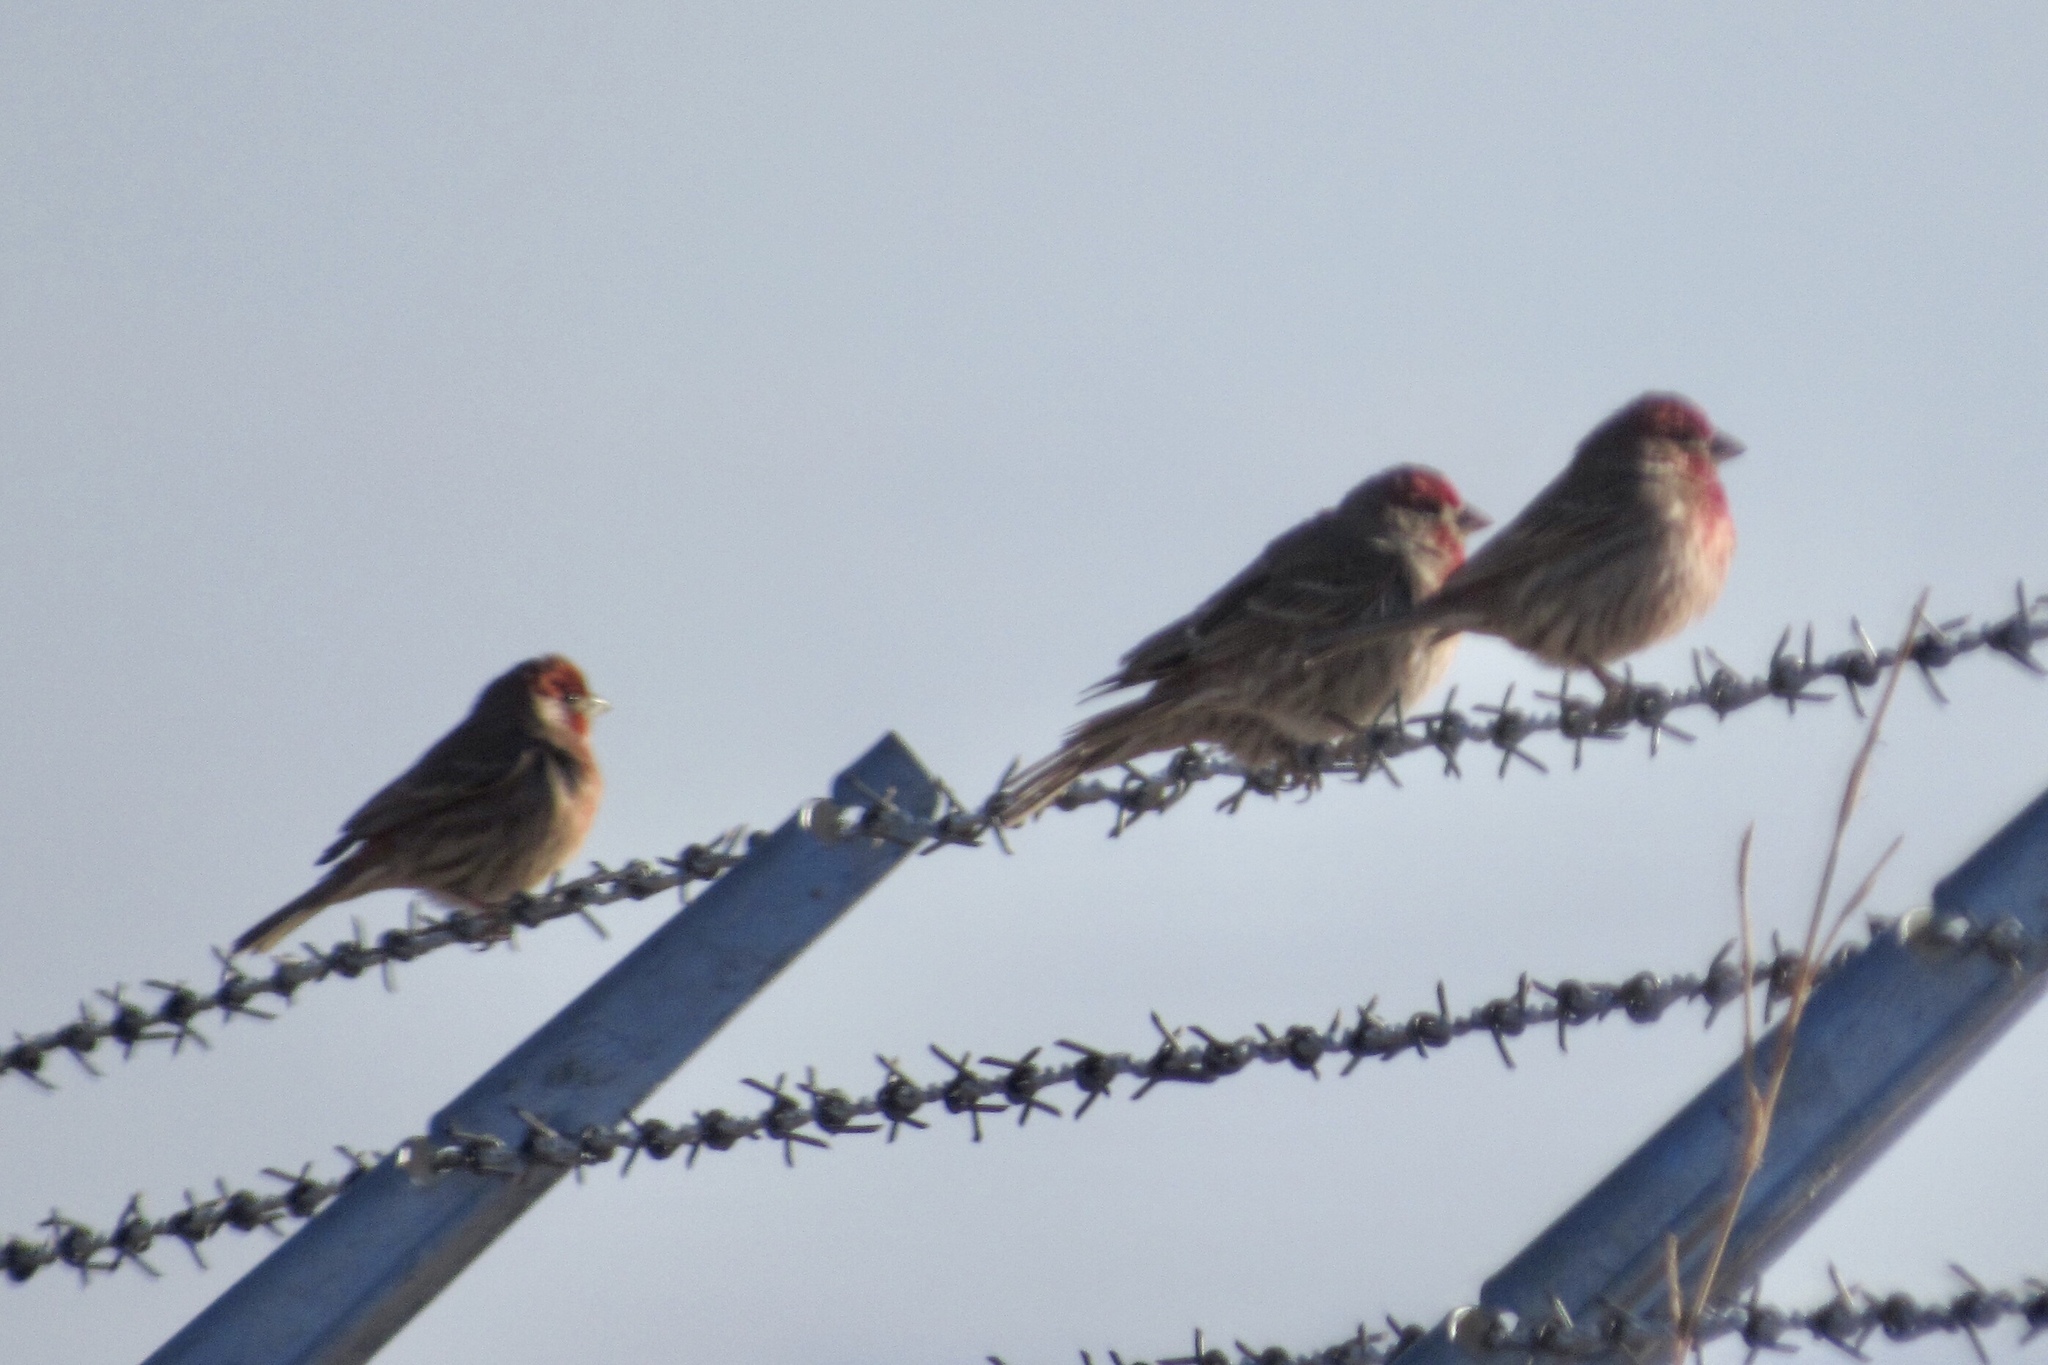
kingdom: Animalia
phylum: Chordata
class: Aves
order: Passeriformes
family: Fringillidae
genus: Haemorhous
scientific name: Haemorhous mexicanus
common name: House finch
